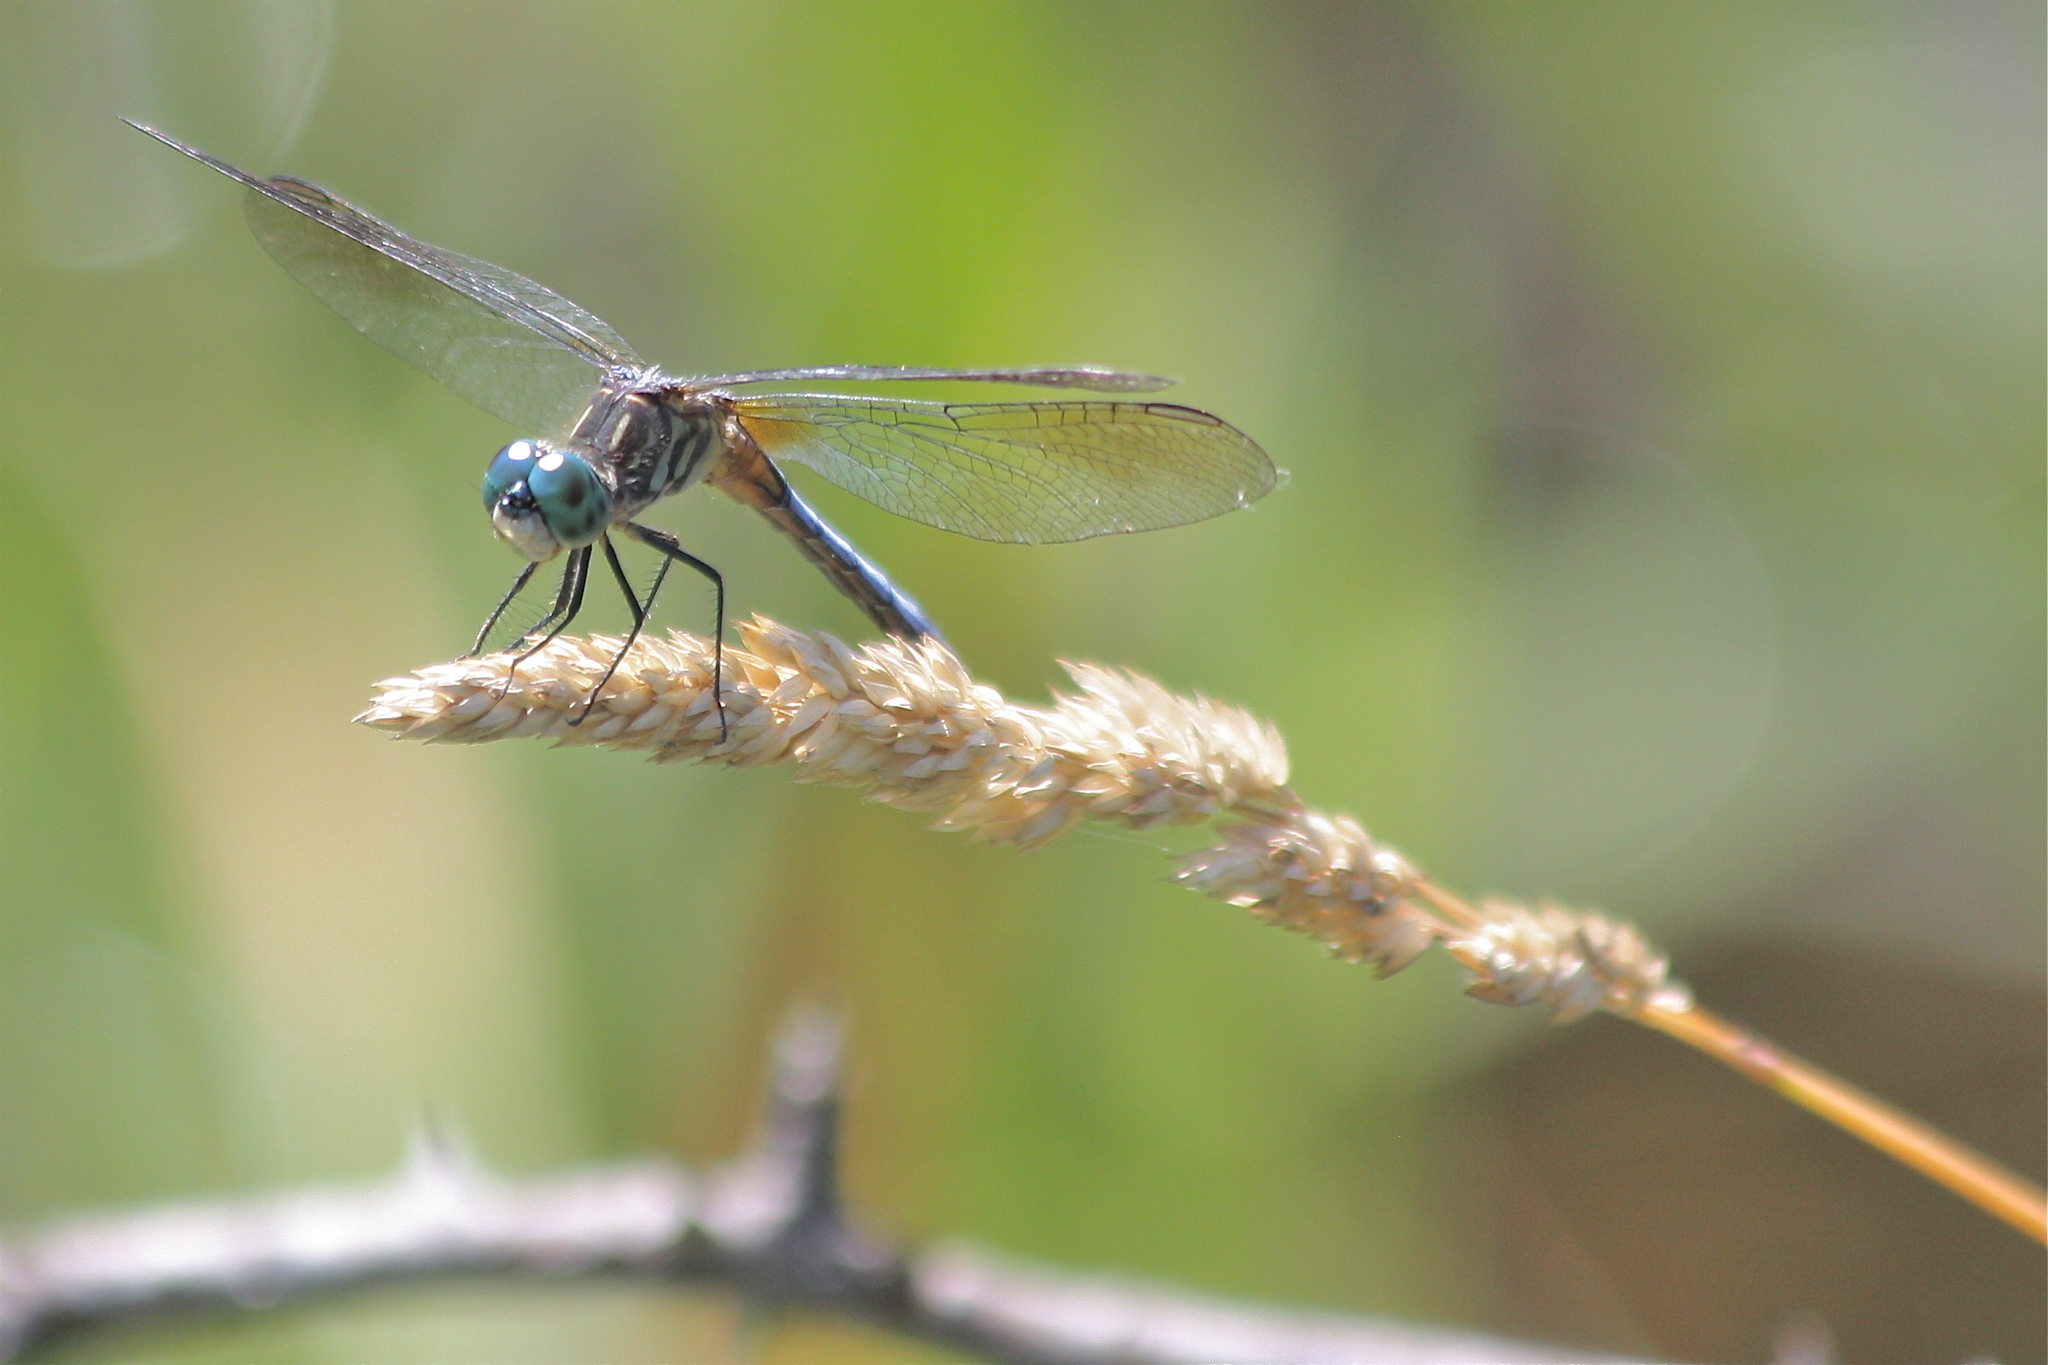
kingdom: Animalia
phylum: Arthropoda
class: Insecta
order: Odonata
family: Libellulidae
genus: Pachydiplax
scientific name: Pachydiplax longipennis
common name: Blue dasher
